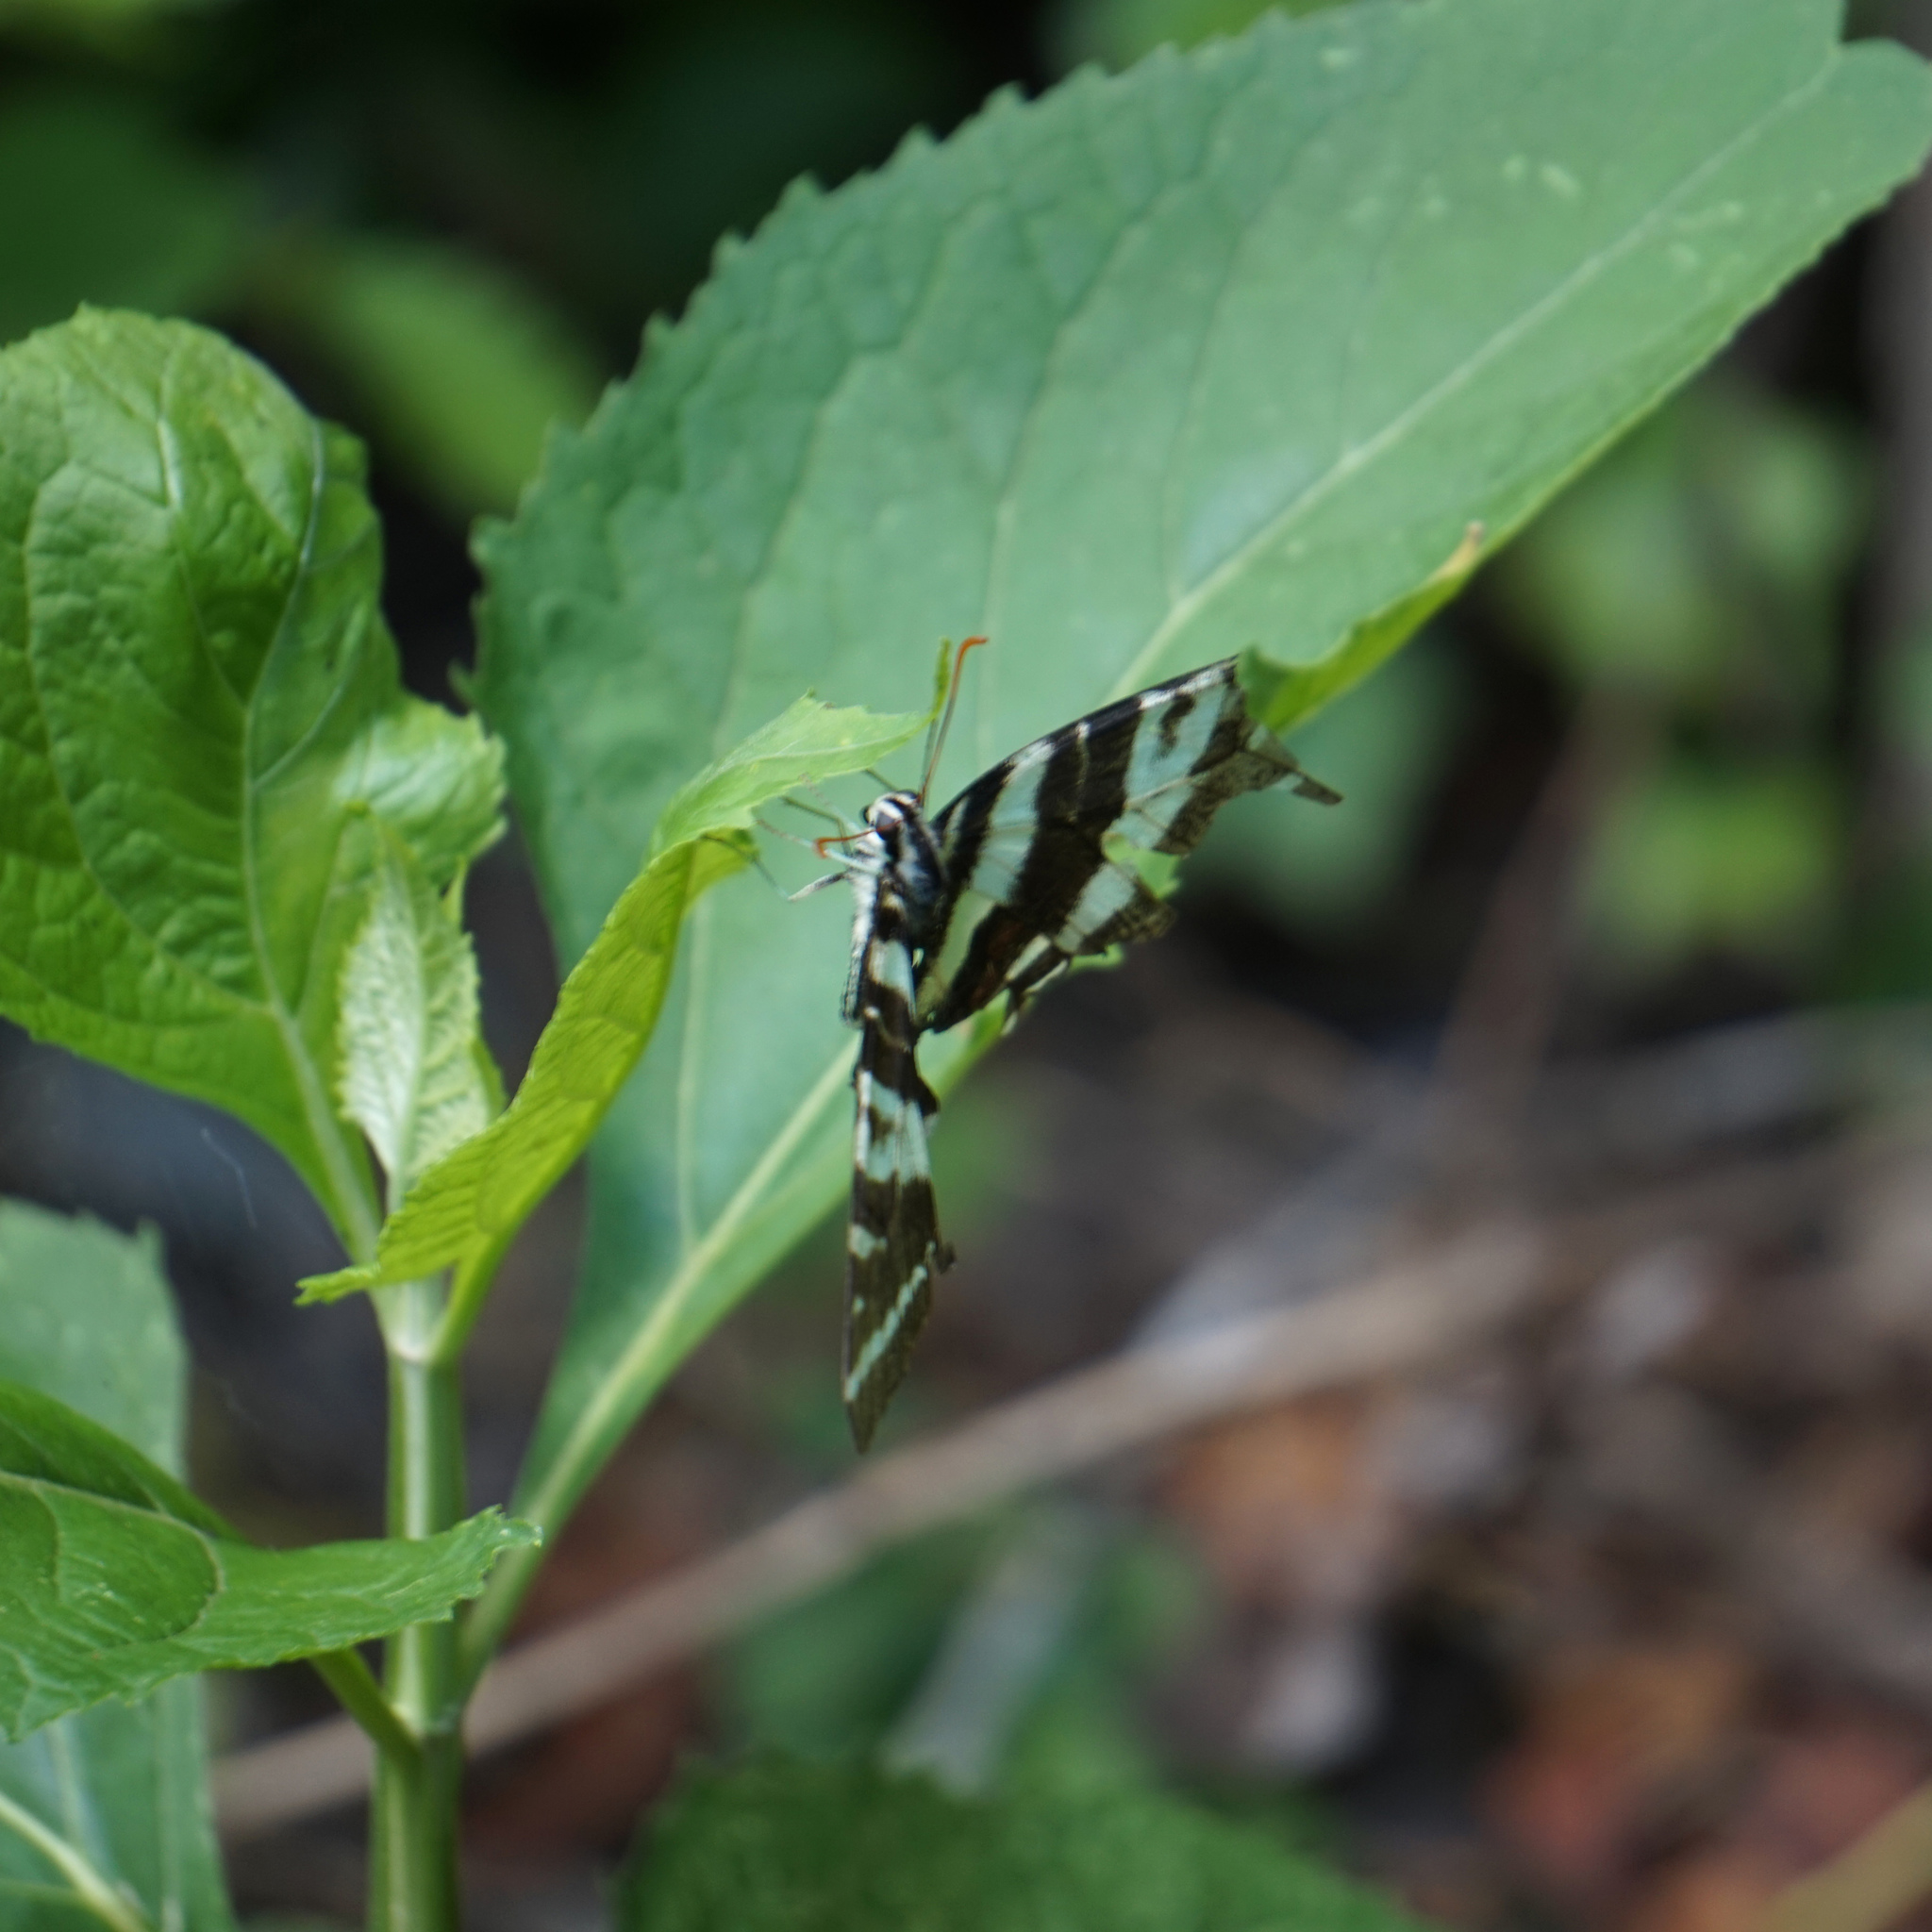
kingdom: Animalia
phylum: Arthropoda
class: Insecta
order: Lepidoptera
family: Papilionidae
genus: Protographium
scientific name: Protographium marcellus
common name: Zebra swallowtail
